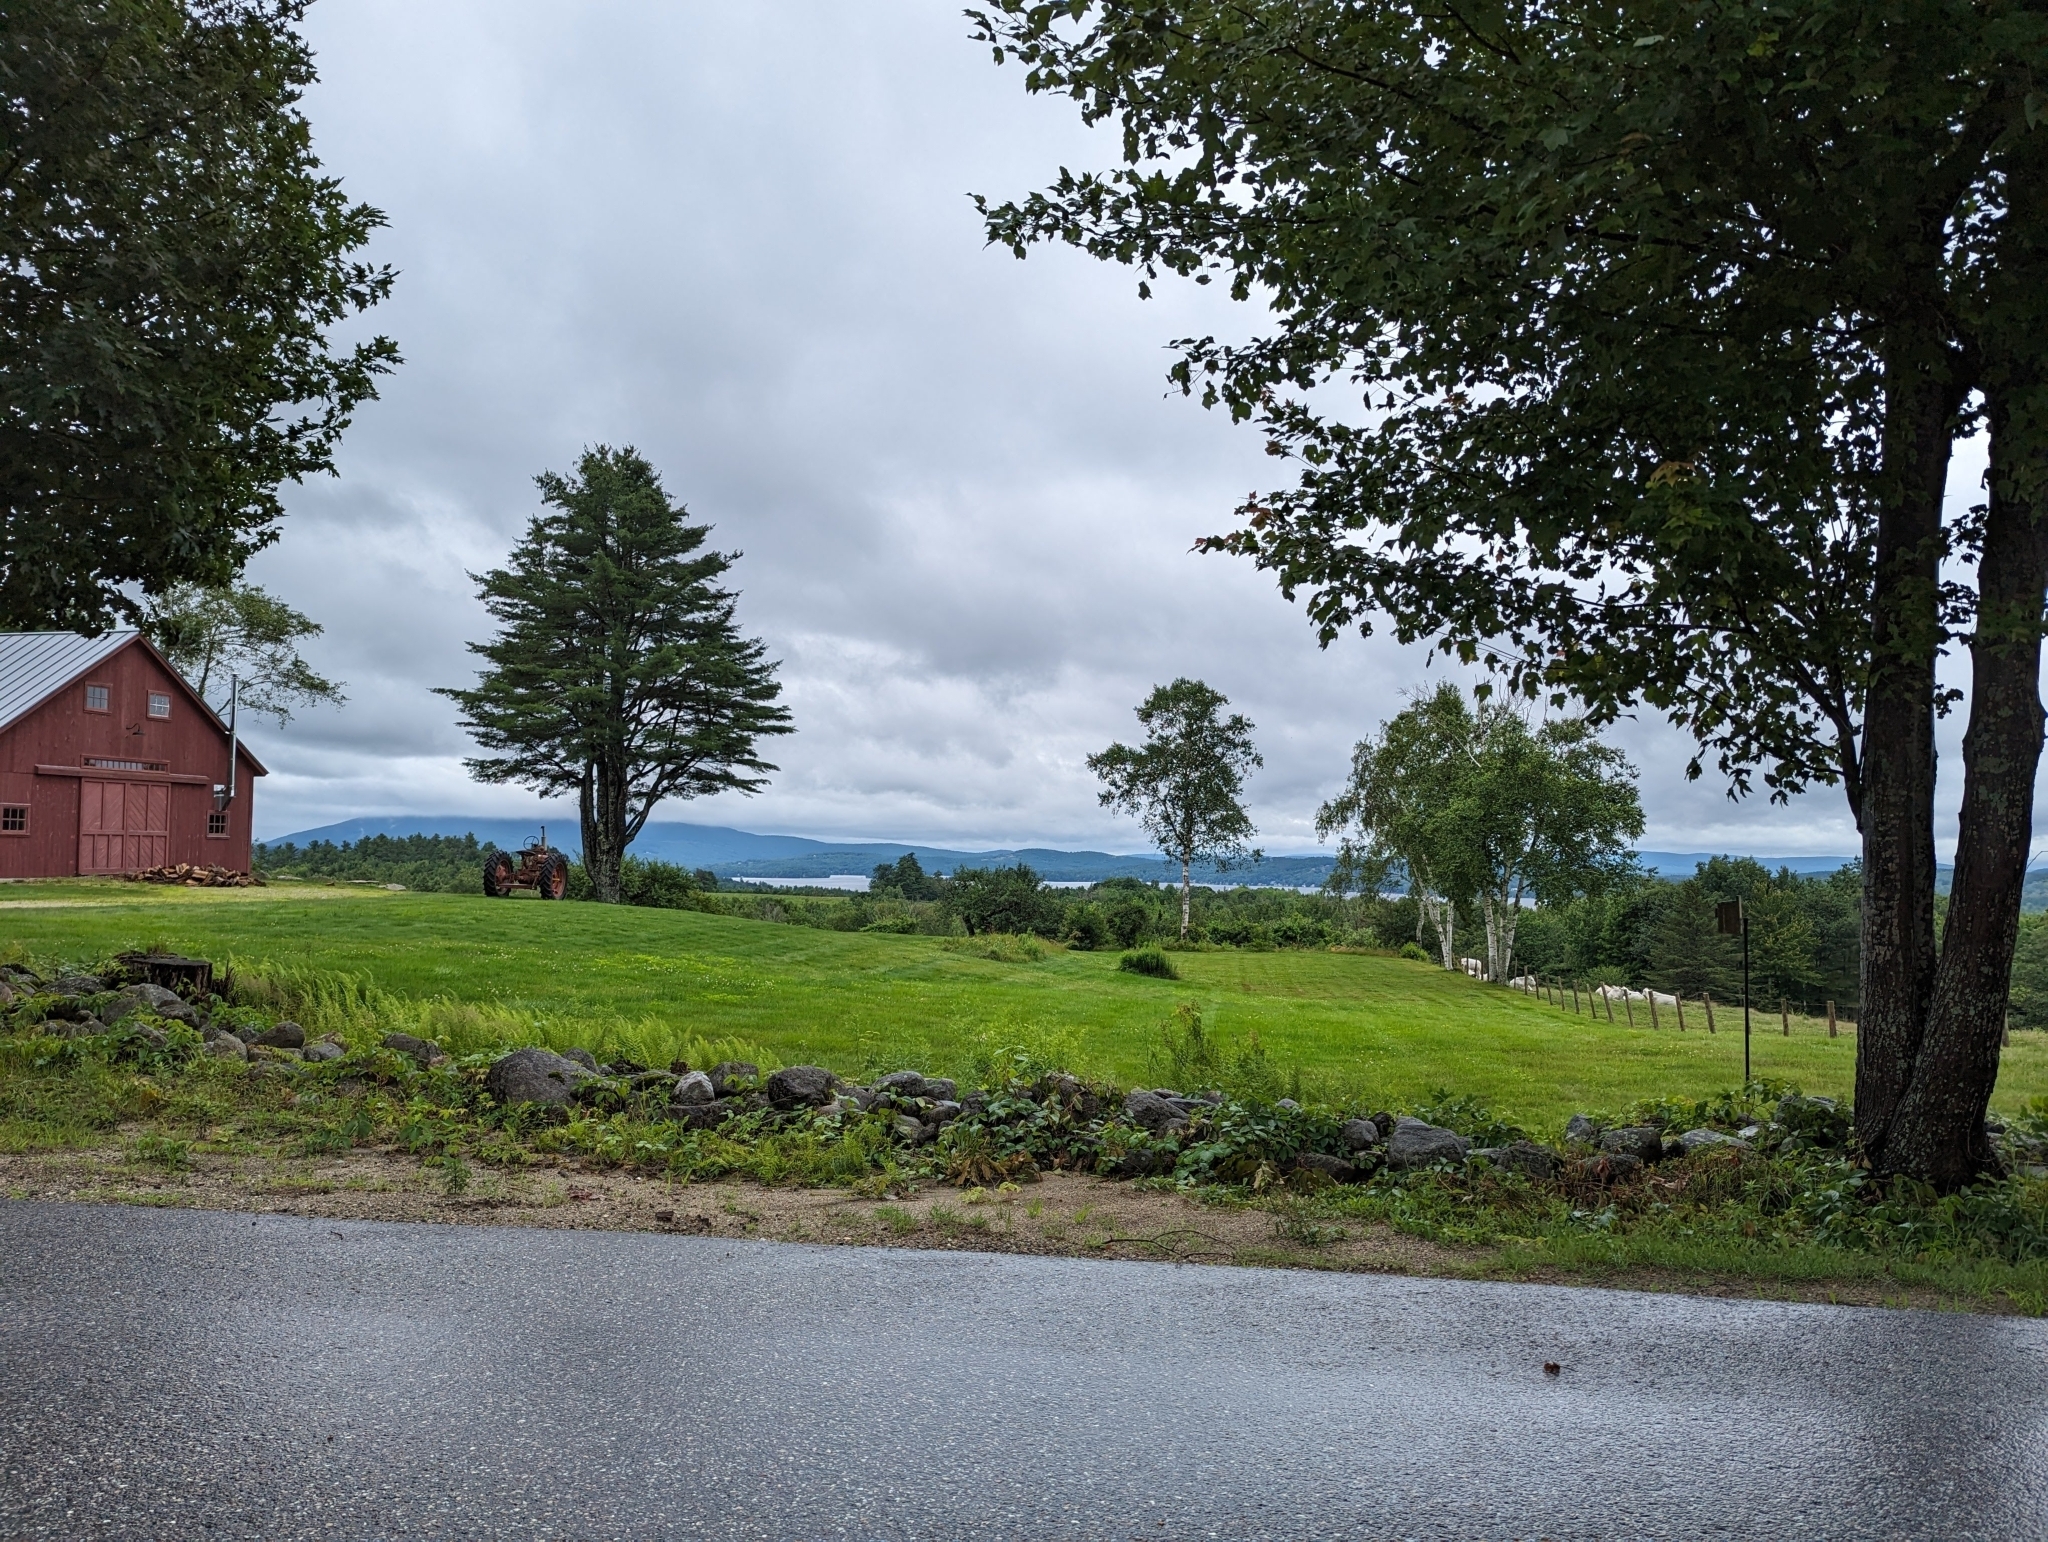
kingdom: Plantae
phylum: Tracheophyta
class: Pinopsida
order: Pinales
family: Pinaceae
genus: Pinus
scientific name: Pinus strobus
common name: Weymouth pine
